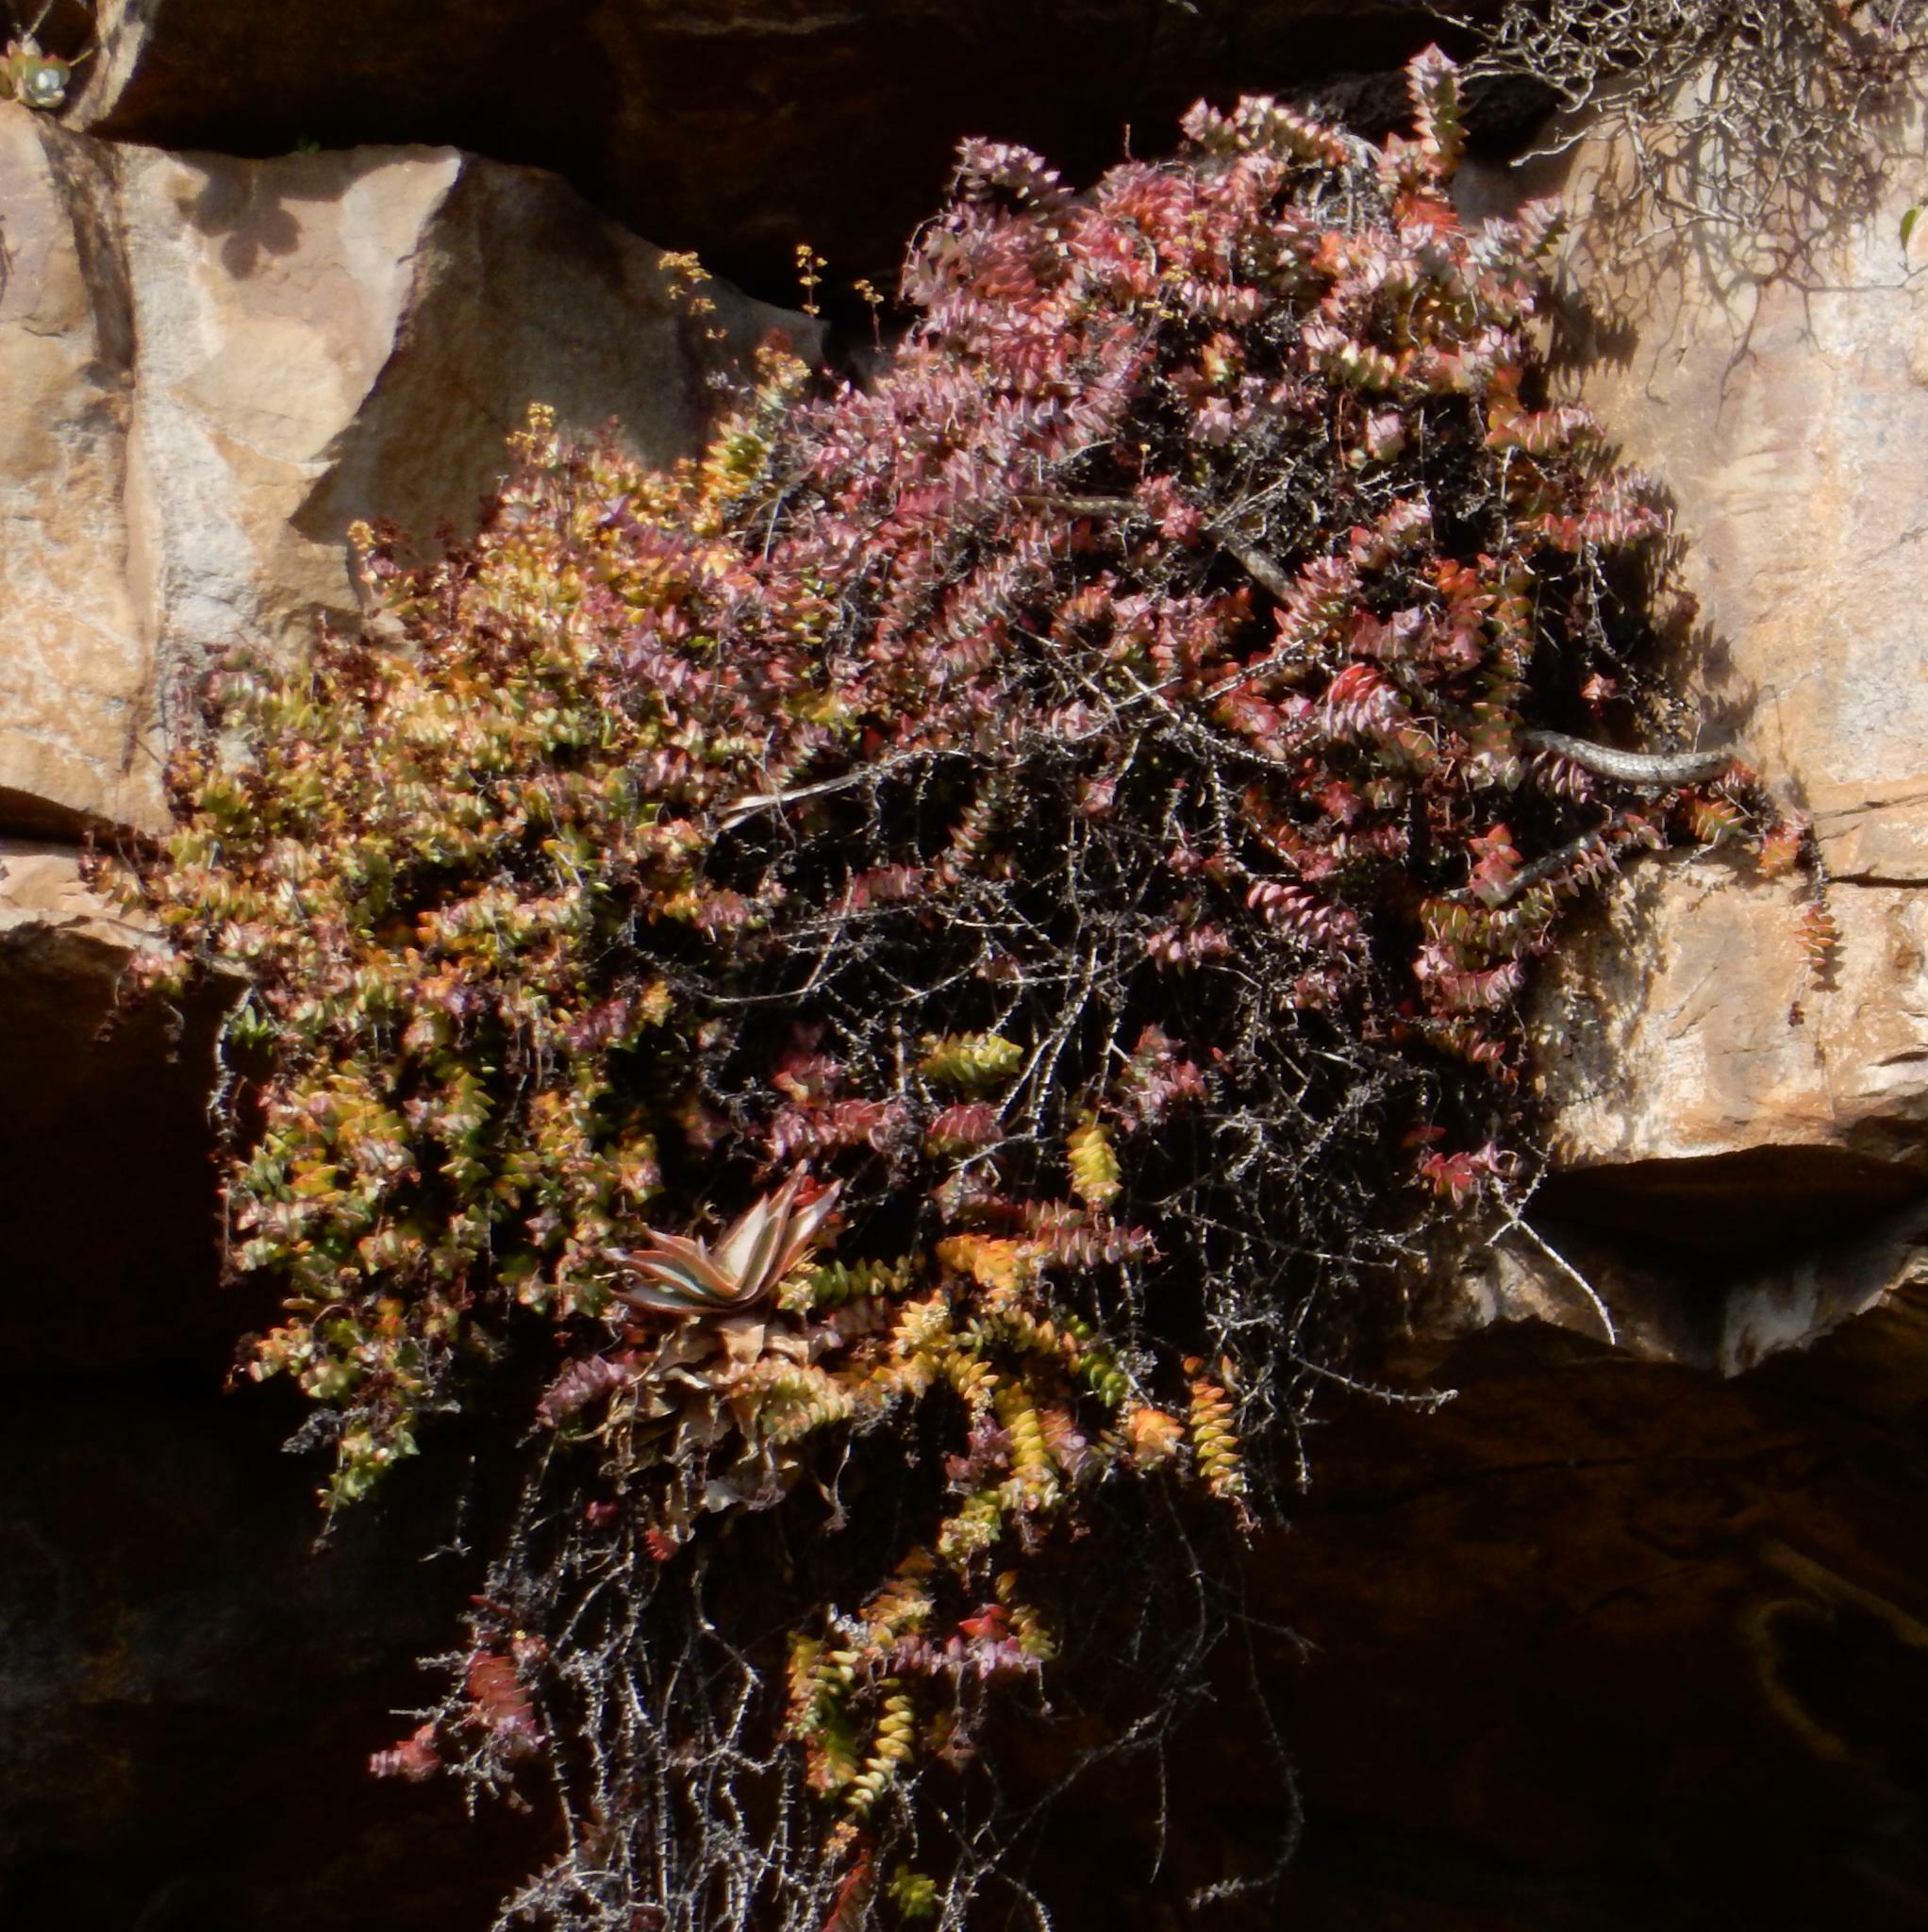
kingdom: Plantae
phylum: Tracheophyta
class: Magnoliopsida
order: Saxifragales
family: Crassulaceae
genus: Crassula
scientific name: Crassula perforata
